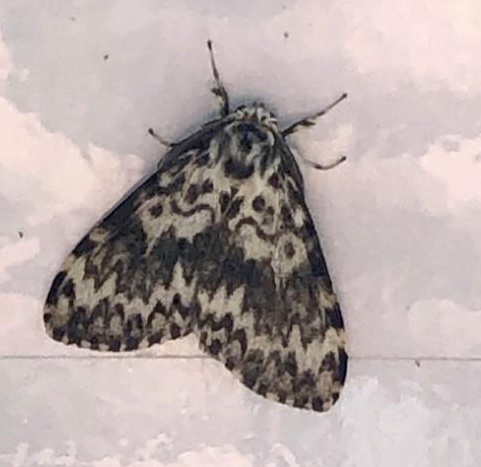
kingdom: Animalia
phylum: Arthropoda
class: Insecta
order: Lepidoptera
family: Erebidae
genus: Lymantria
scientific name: Lymantria monacha
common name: Black arches
